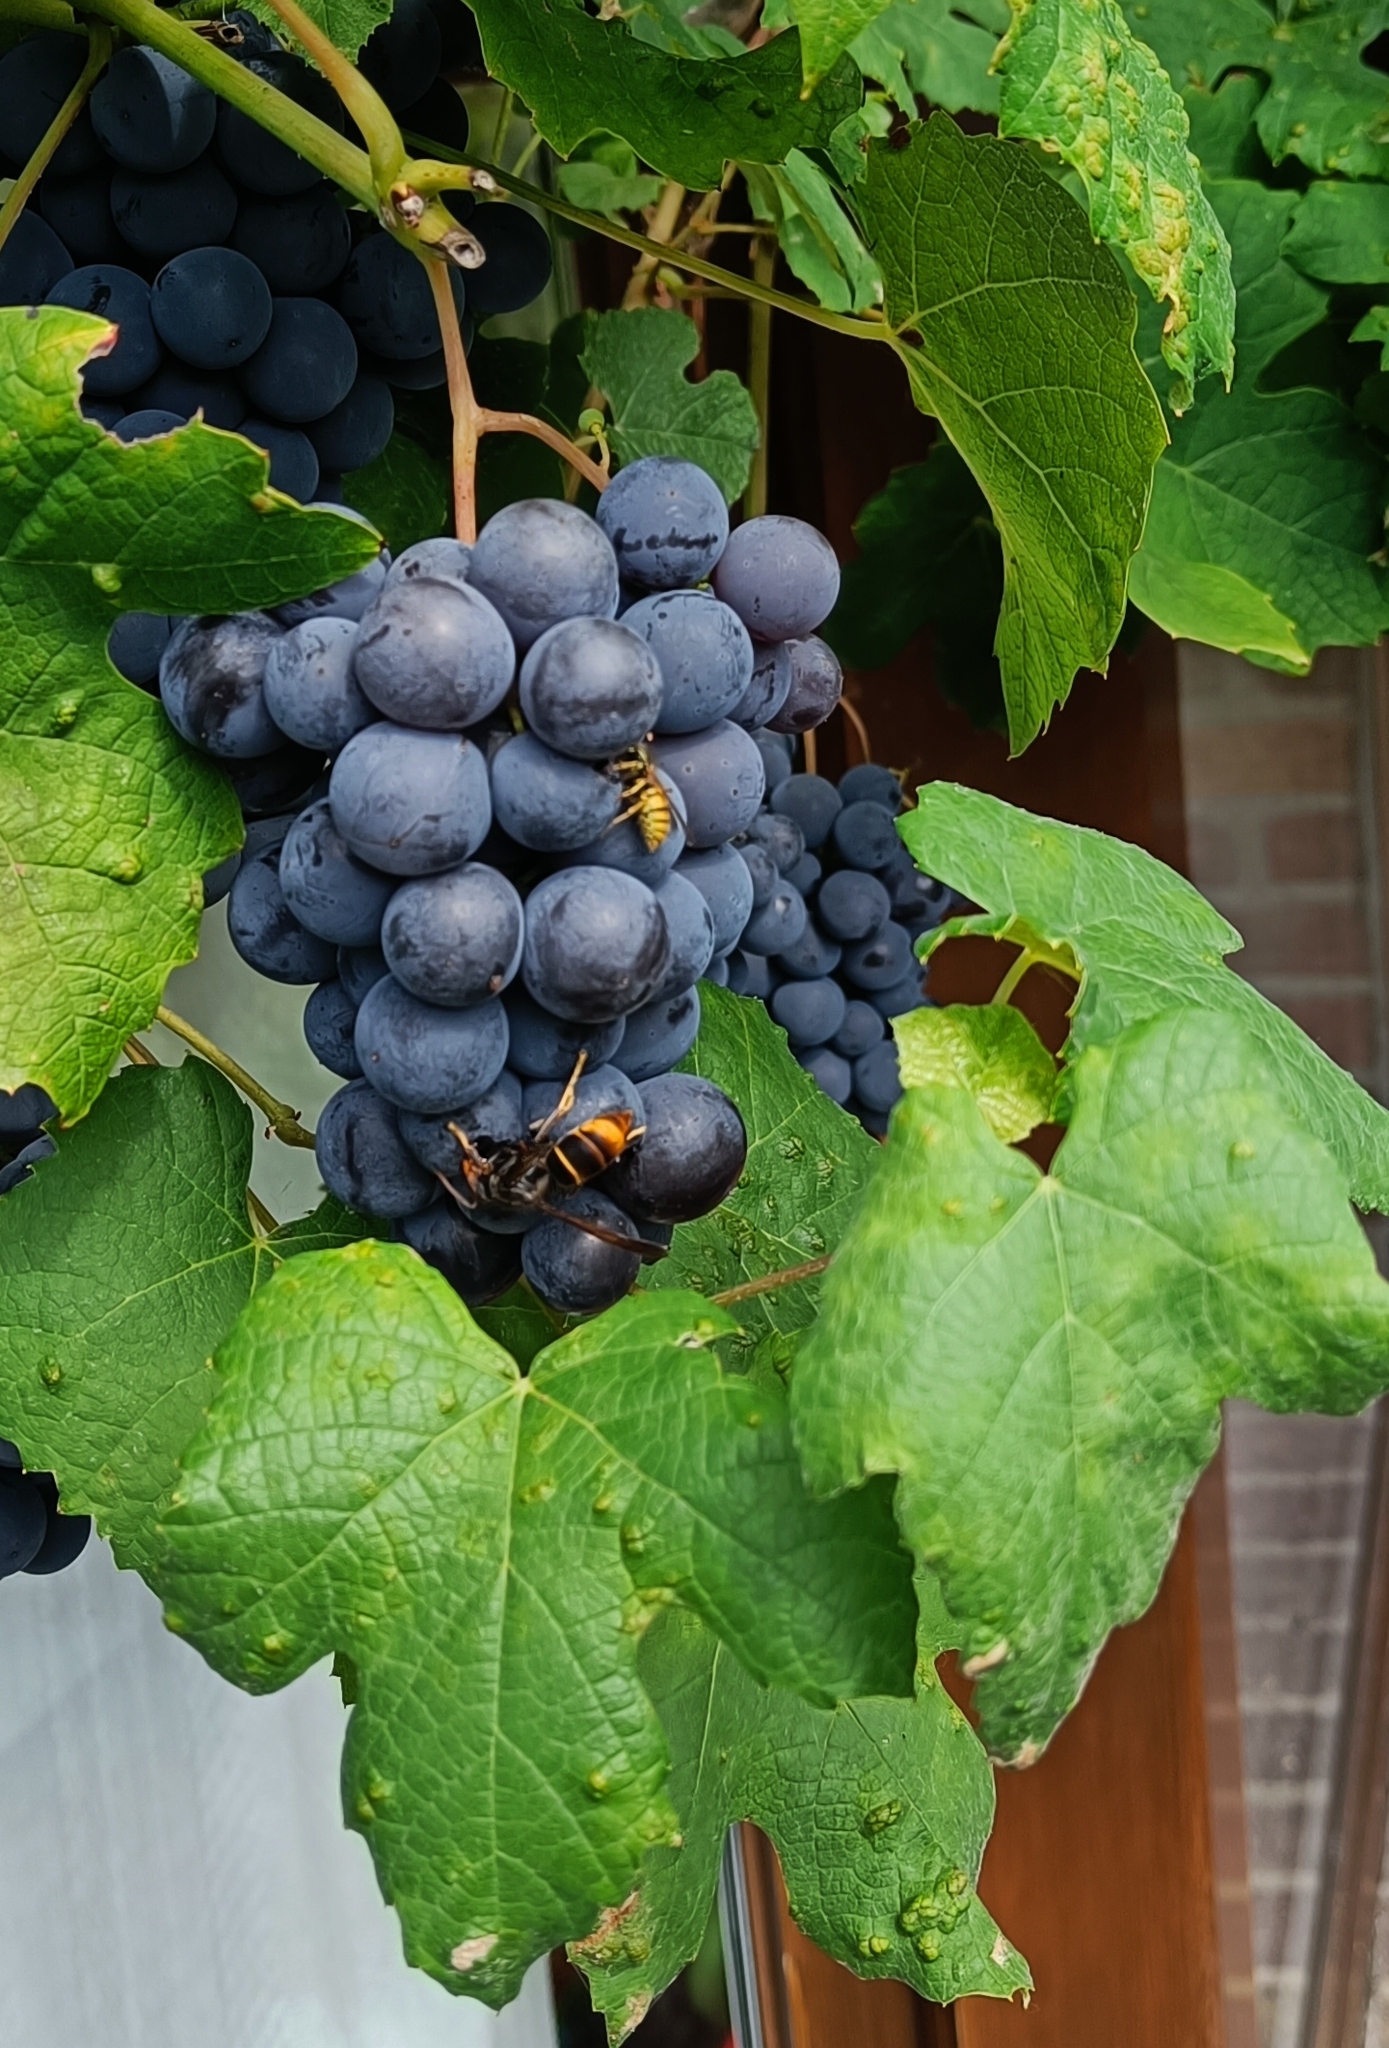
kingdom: Animalia
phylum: Arthropoda
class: Insecta
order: Hymenoptera
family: Vespidae
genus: Vespa
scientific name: Vespa velutina
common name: Asian hornet
